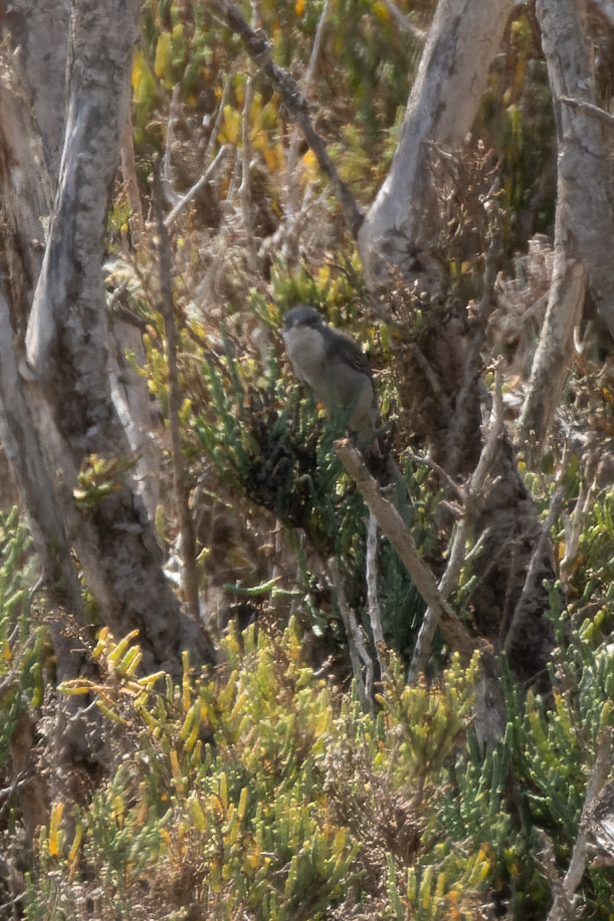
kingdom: Animalia
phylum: Chordata
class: Aves
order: Passeriformes
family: Sylviidae
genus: Curruca
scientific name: Curruca melanocephala
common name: Sardinian warbler
